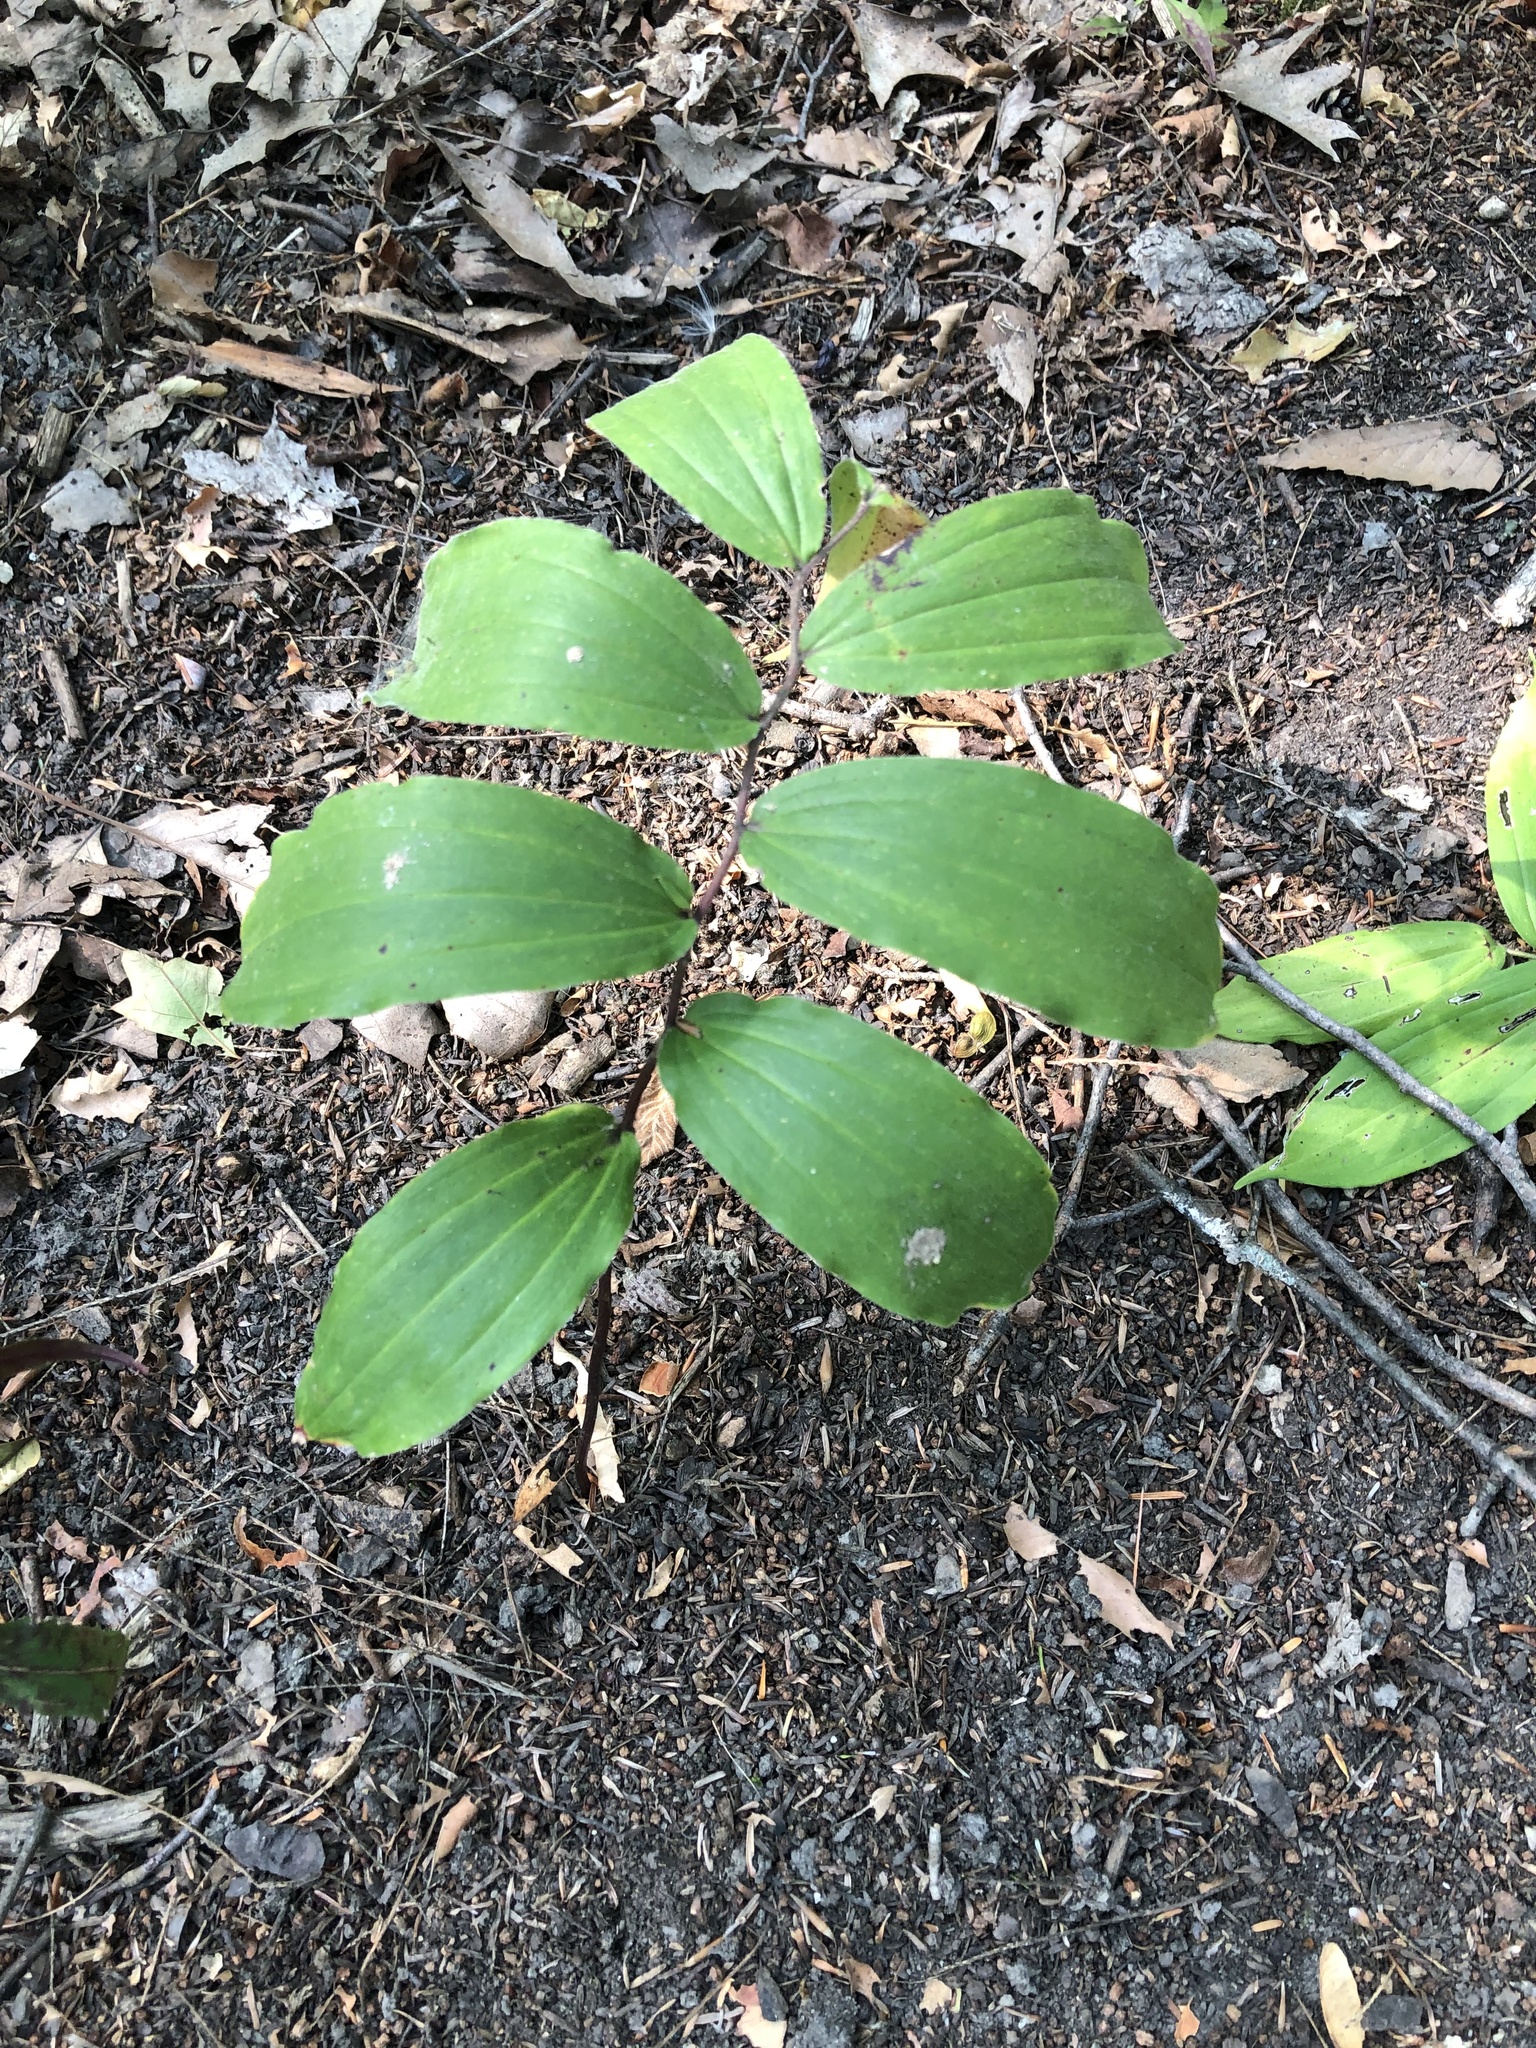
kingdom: Plantae
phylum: Tracheophyta
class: Liliopsida
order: Asparagales
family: Asparagaceae
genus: Maianthemum
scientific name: Maianthemum racemosum
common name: False spikenard
